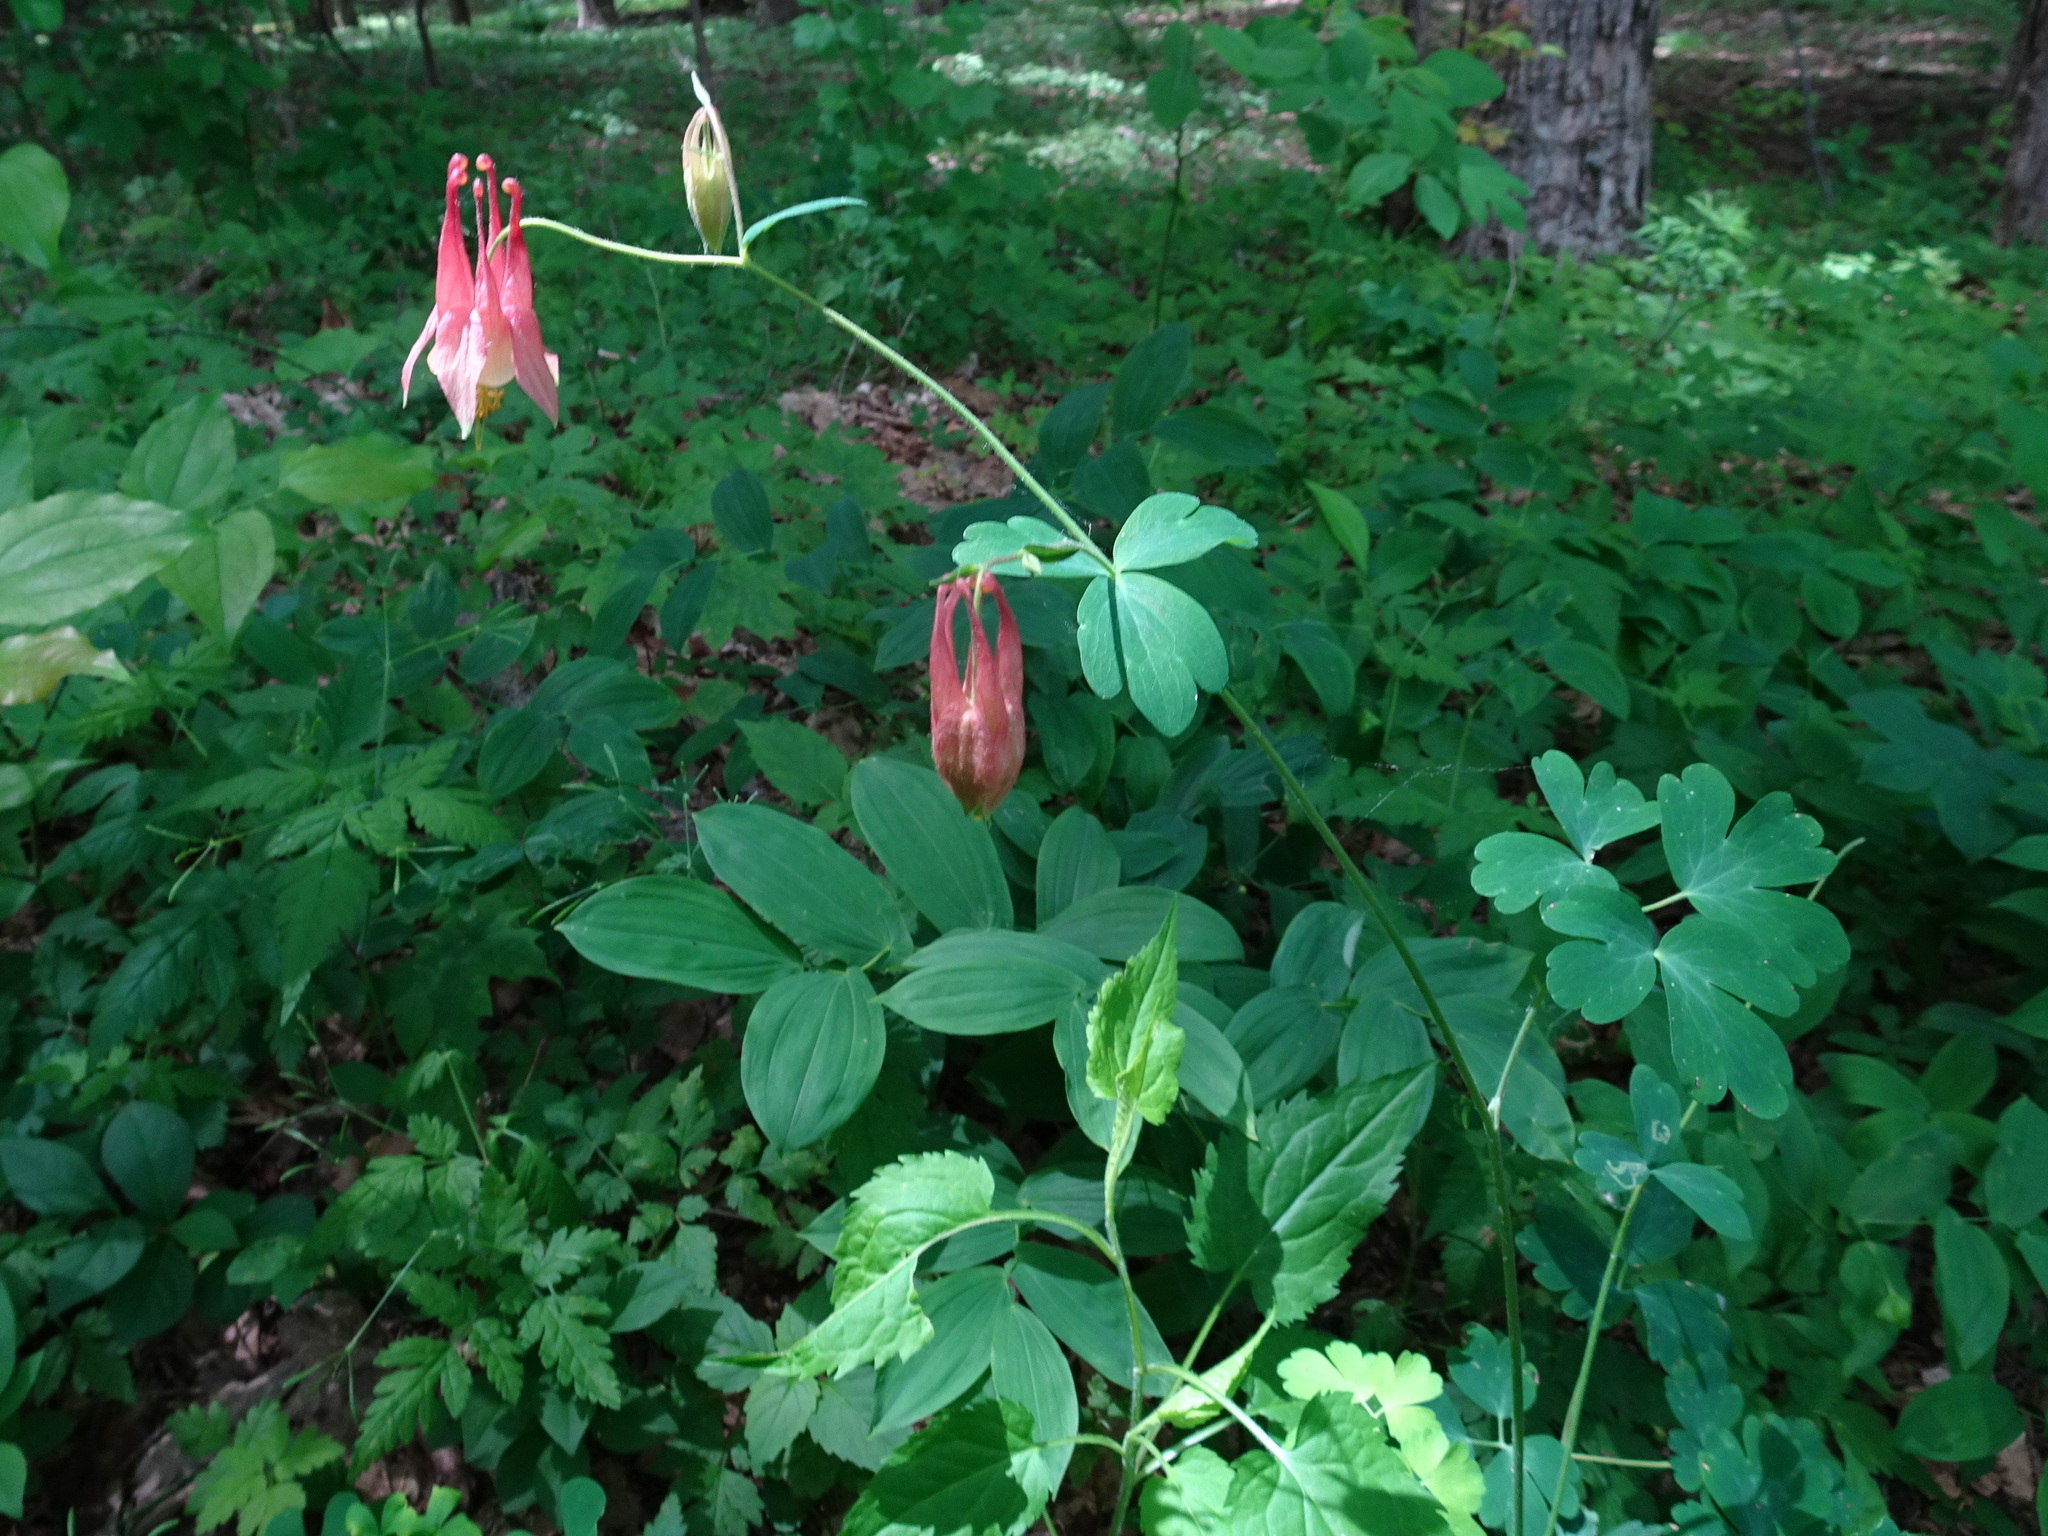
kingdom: Plantae
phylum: Tracheophyta
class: Magnoliopsida
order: Ranunculales
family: Ranunculaceae
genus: Aquilegia
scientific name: Aquilegia canadensis
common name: American columbine
